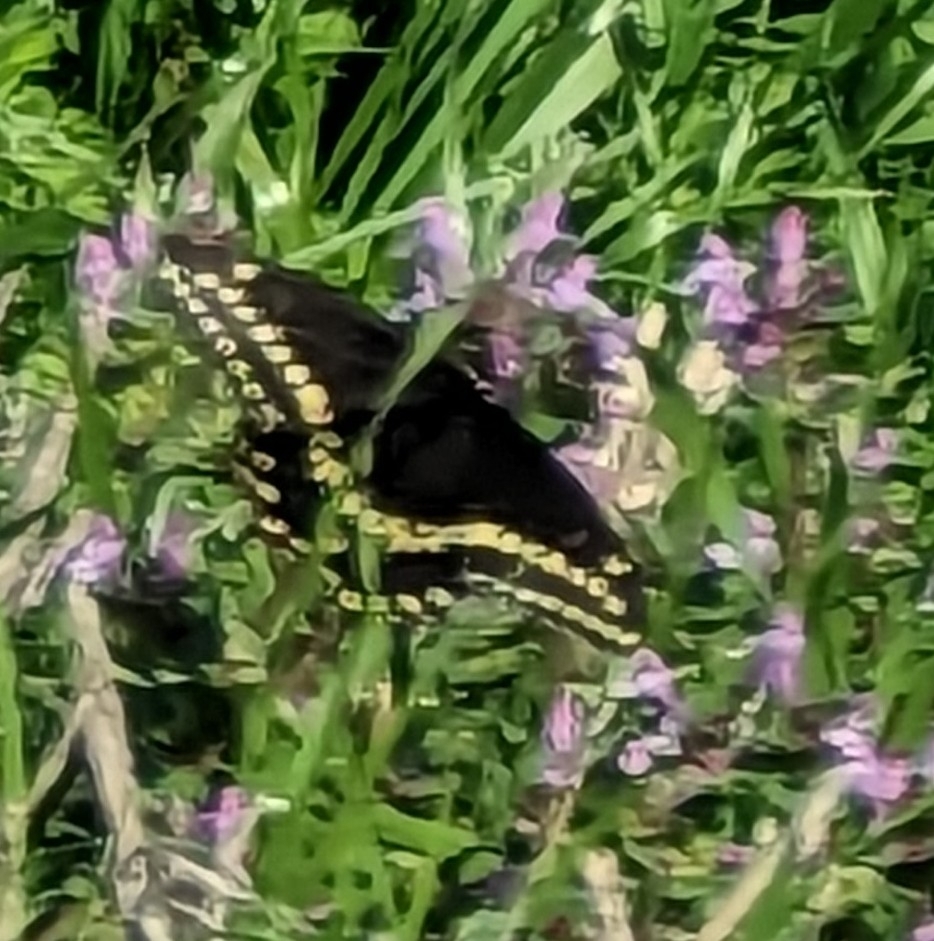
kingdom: Animalia
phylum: Arthropoda
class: Insecta
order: Lepidoptera
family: Papilionidae
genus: Papilio
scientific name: Papilio polyxenes
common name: Black swallowtail
